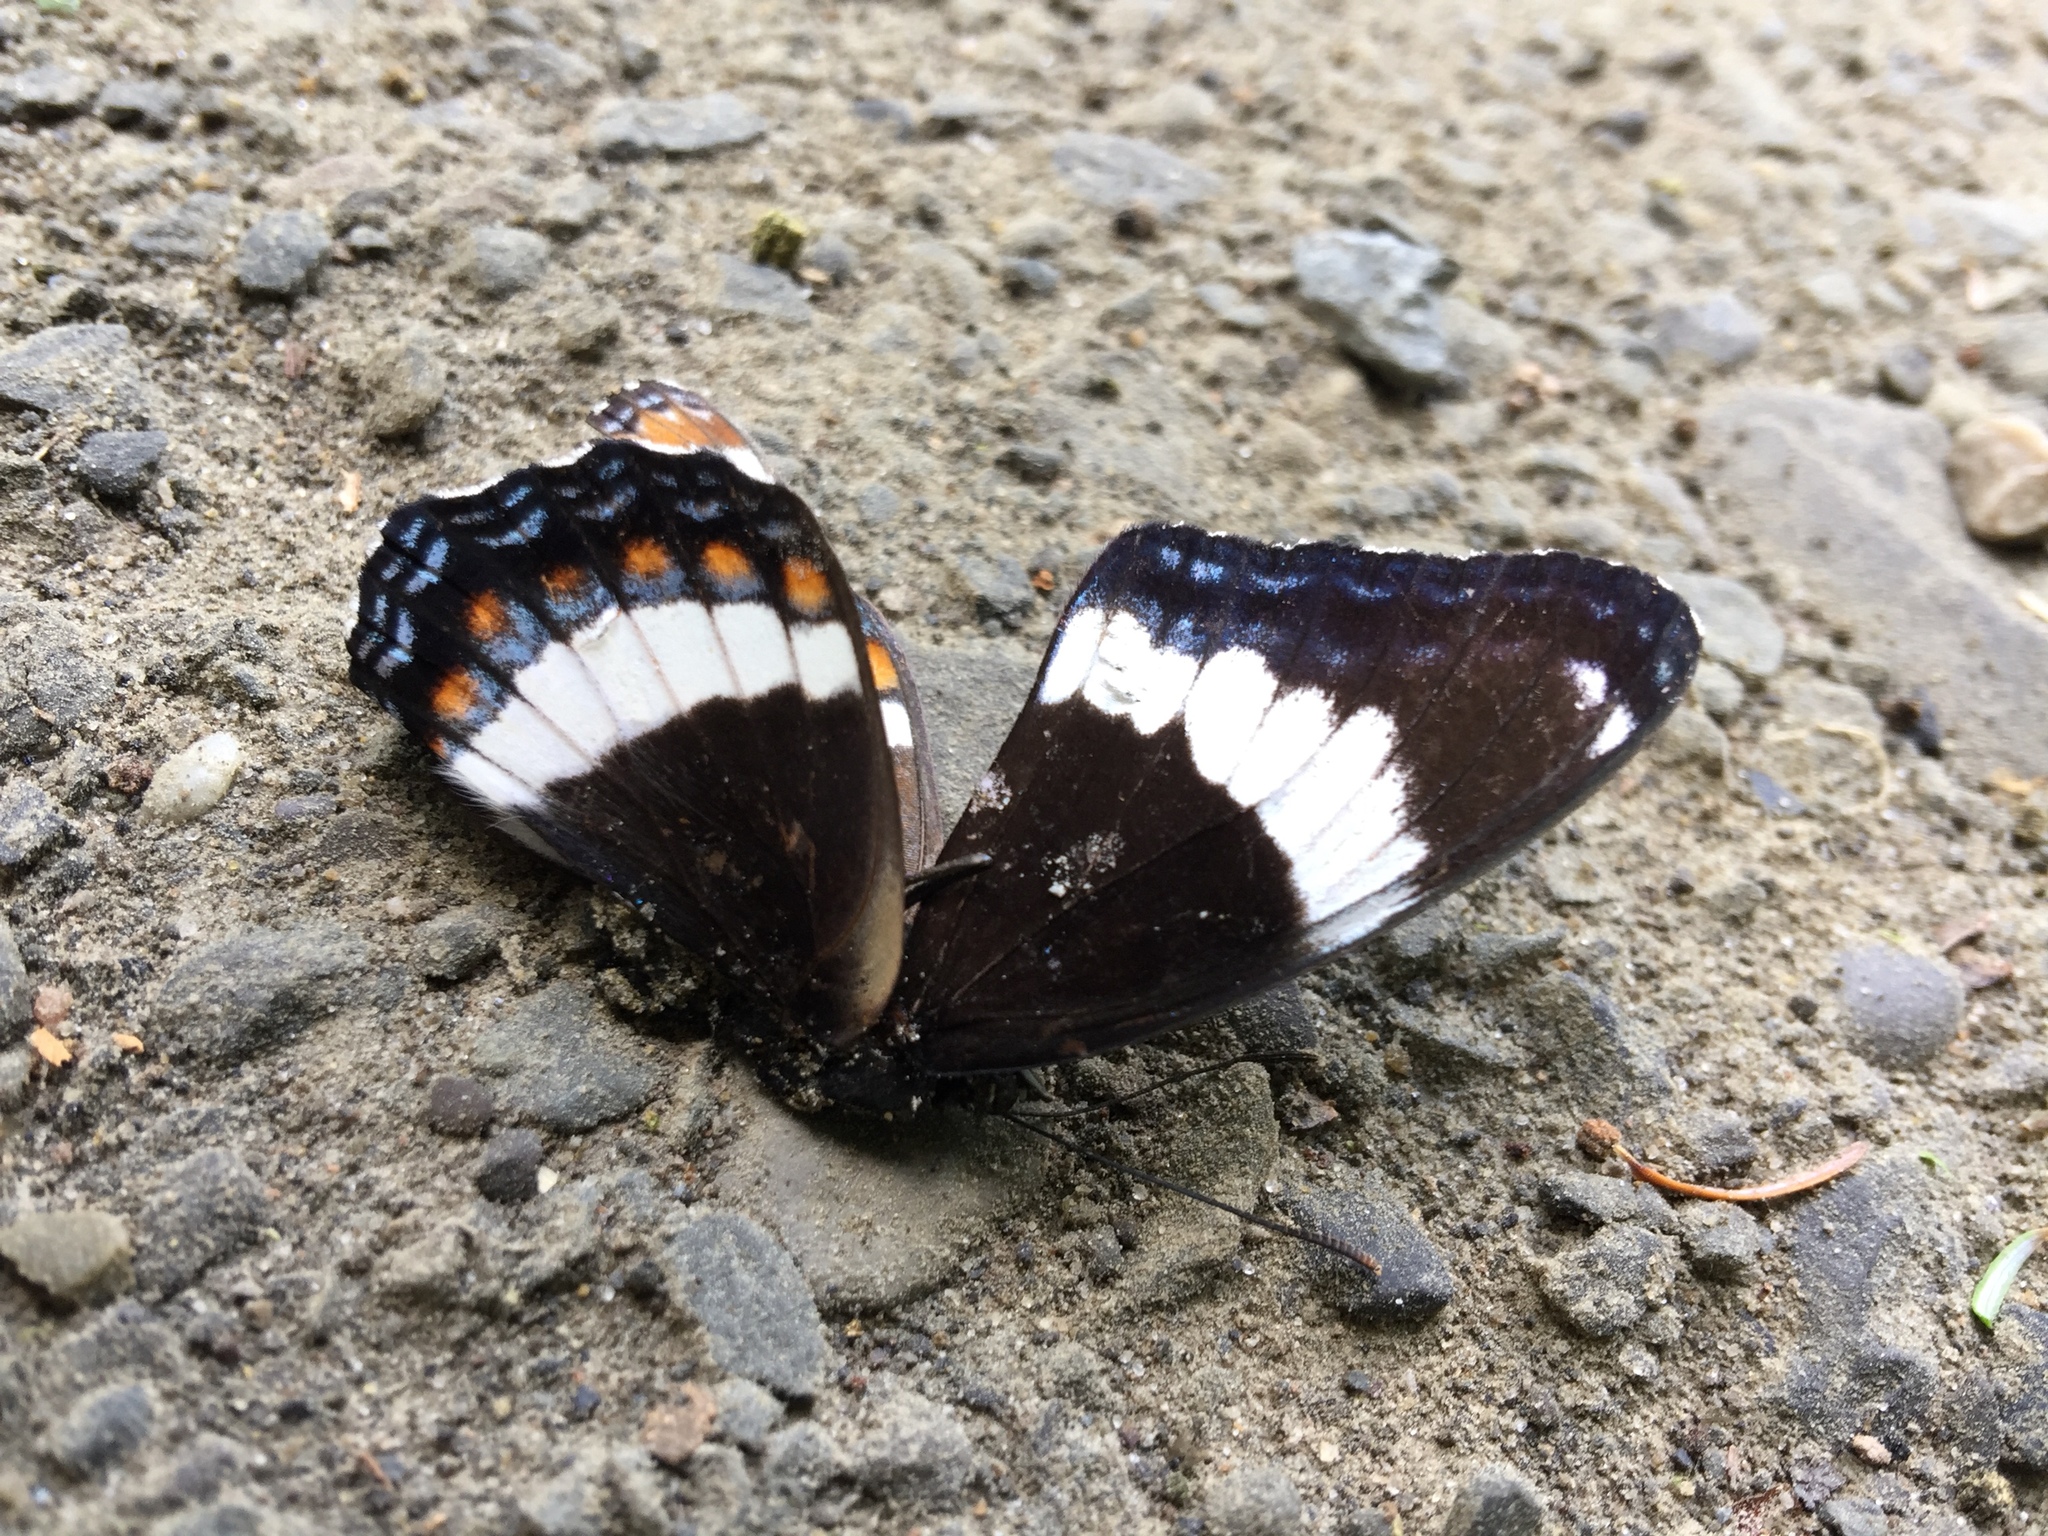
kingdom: Animalia
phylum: Arthropoda
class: Insecta
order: Lepidoptera
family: Nymphalidae
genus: Limenitis
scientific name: Limenitis arthemis
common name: Red-spotted admiral
